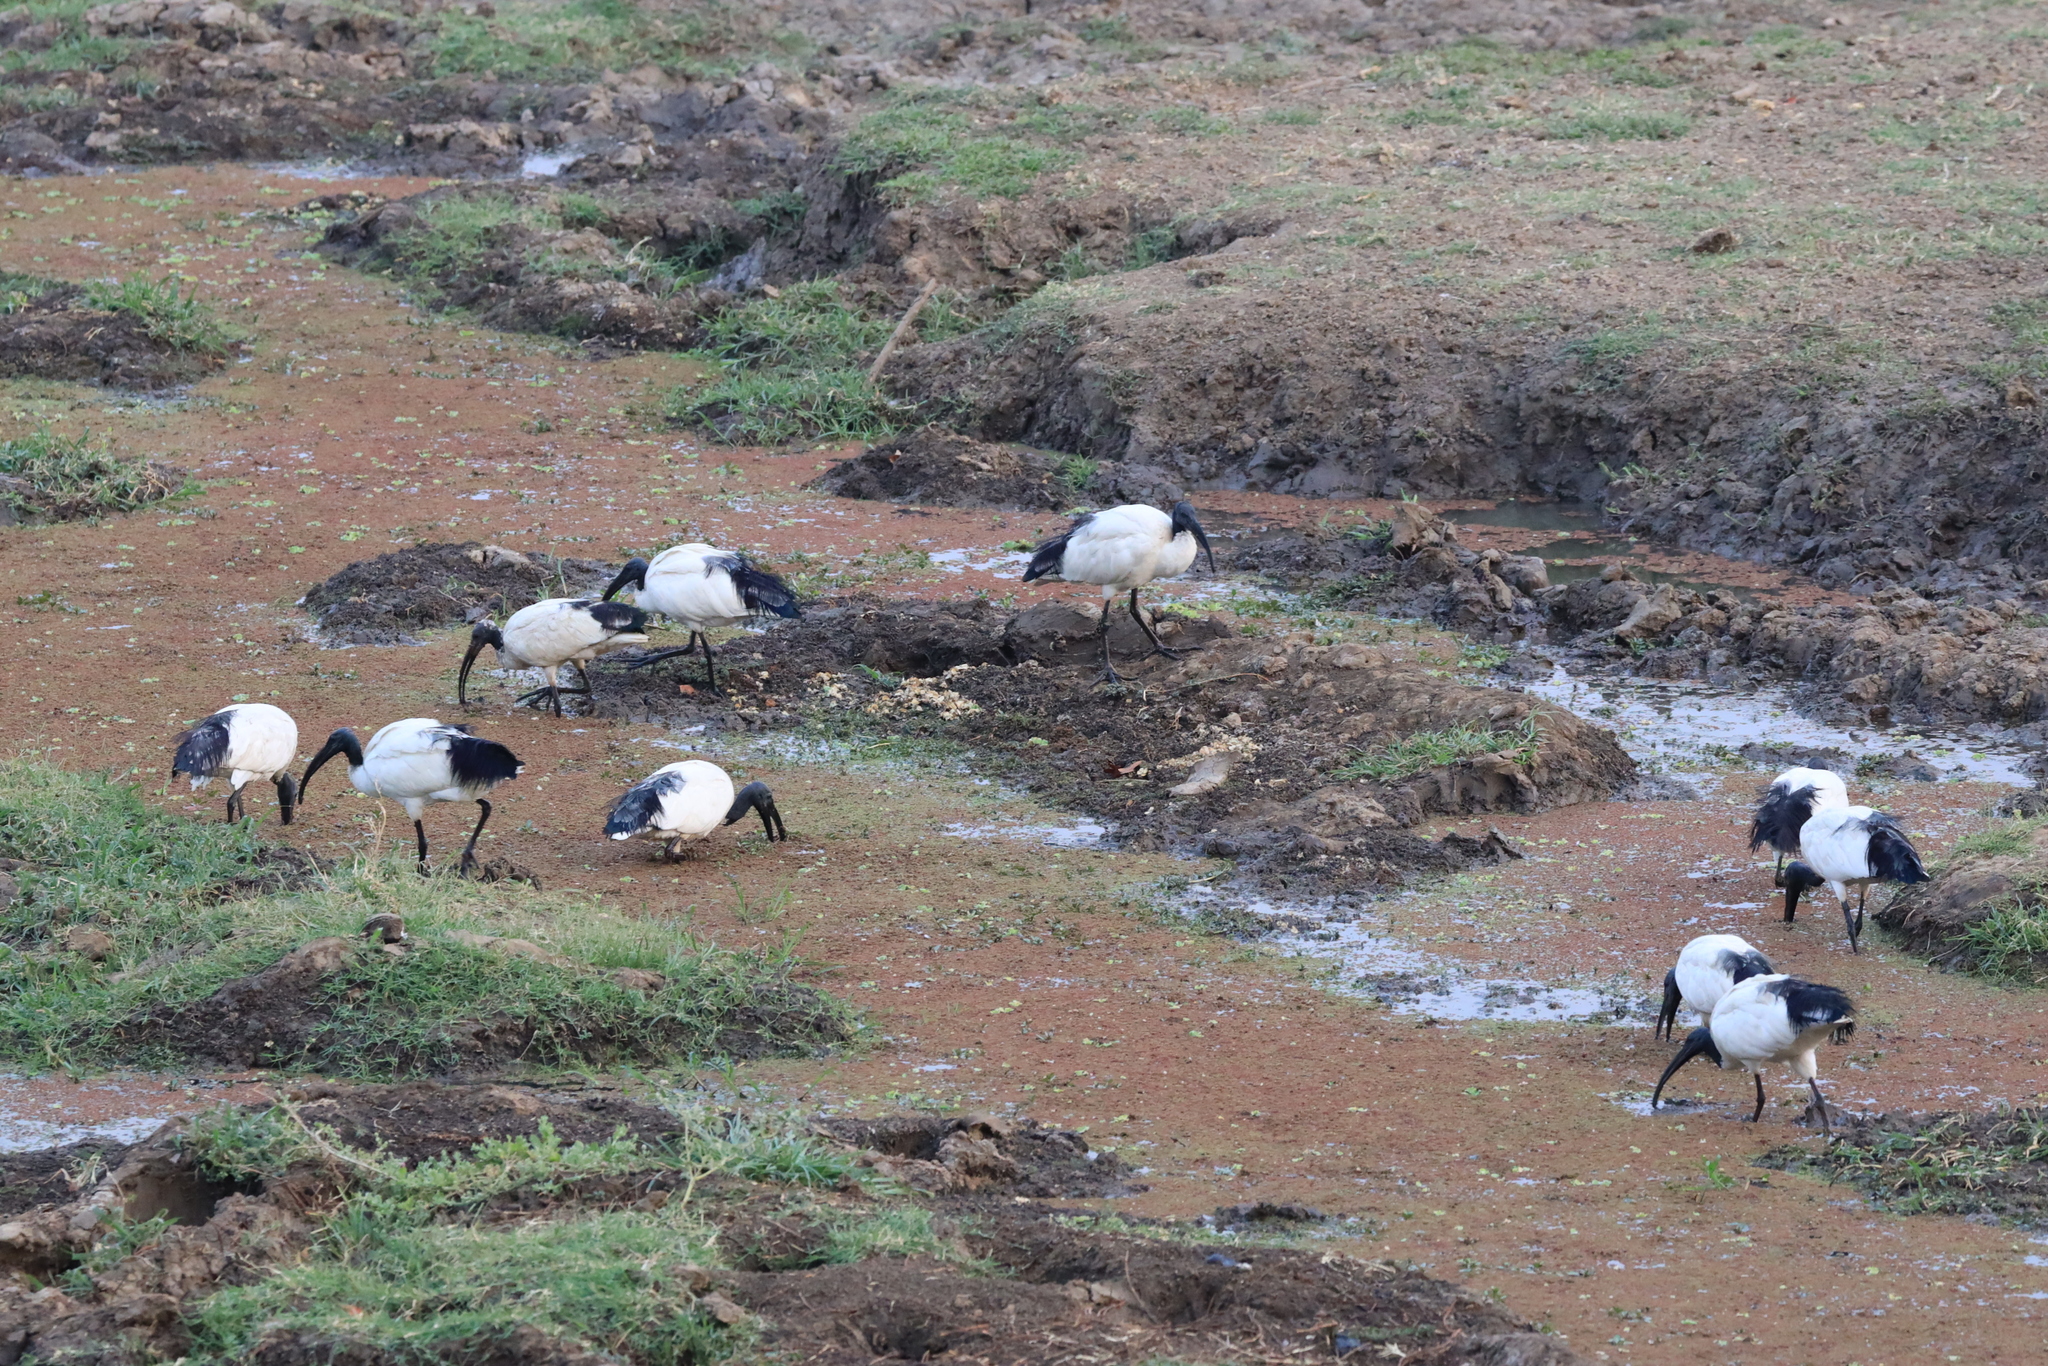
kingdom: Animalia
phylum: Chordata
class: Aves
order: Pelecaniformes
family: Threskiornithidae
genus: Threskiornis
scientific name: Threskiornis aethiopicus
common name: Sacred ibis
